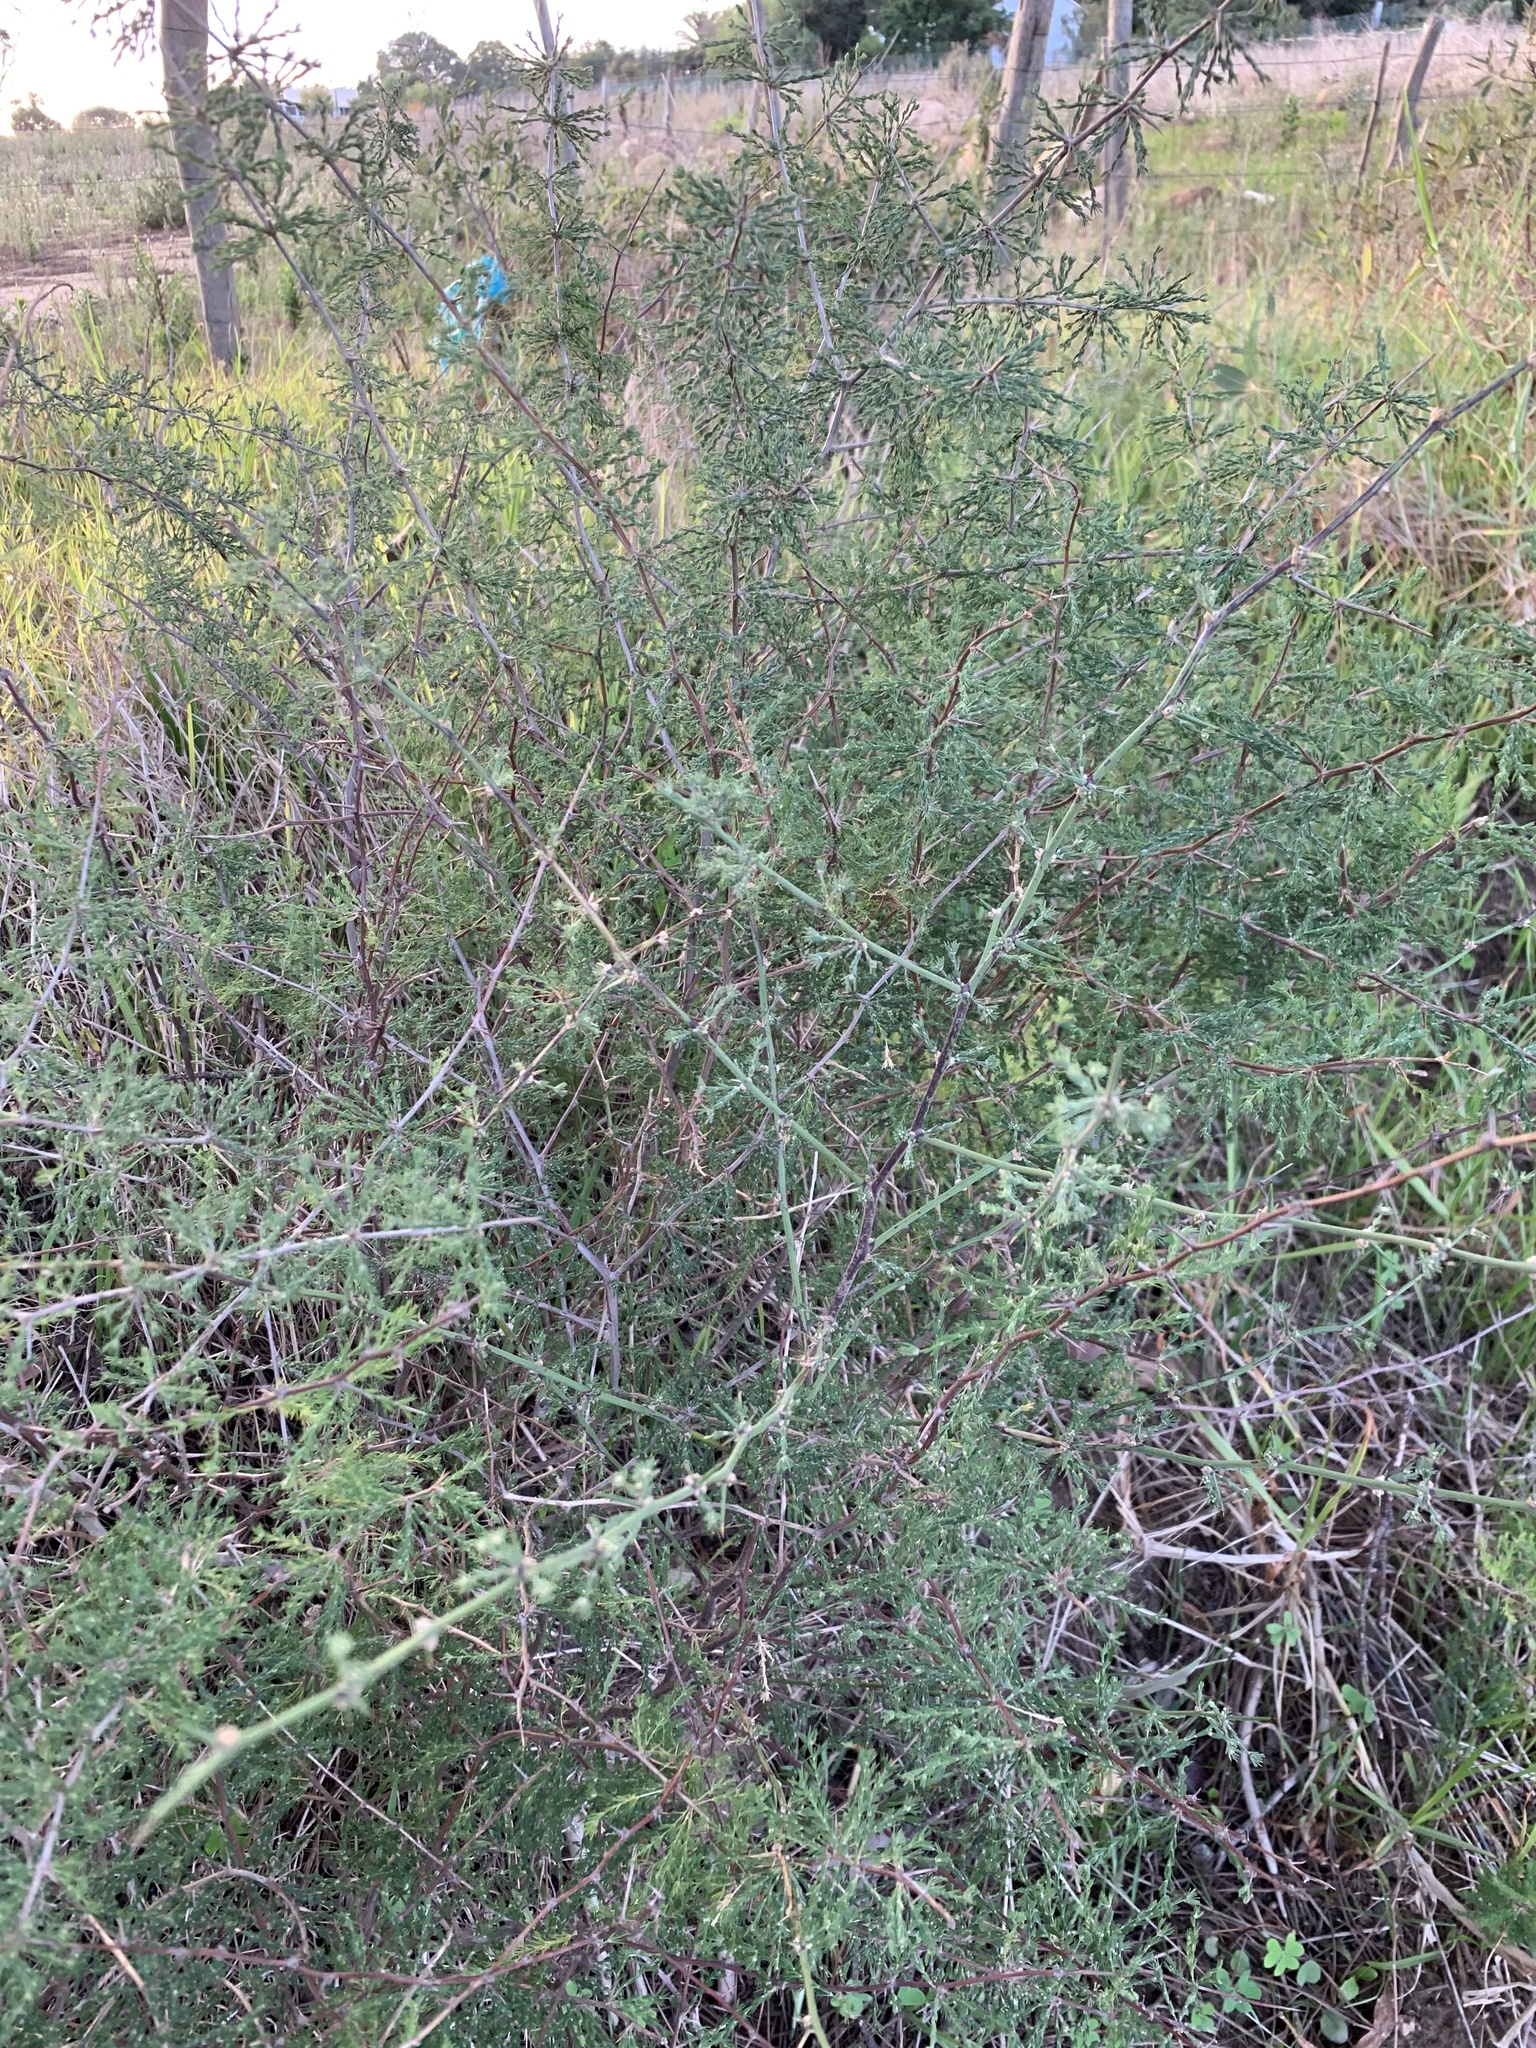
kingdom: Plantae
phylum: Tracheophyta
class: Liliopsida
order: Asparagales
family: Asparagaceae
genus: Asparagus
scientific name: Asparagus capensis
